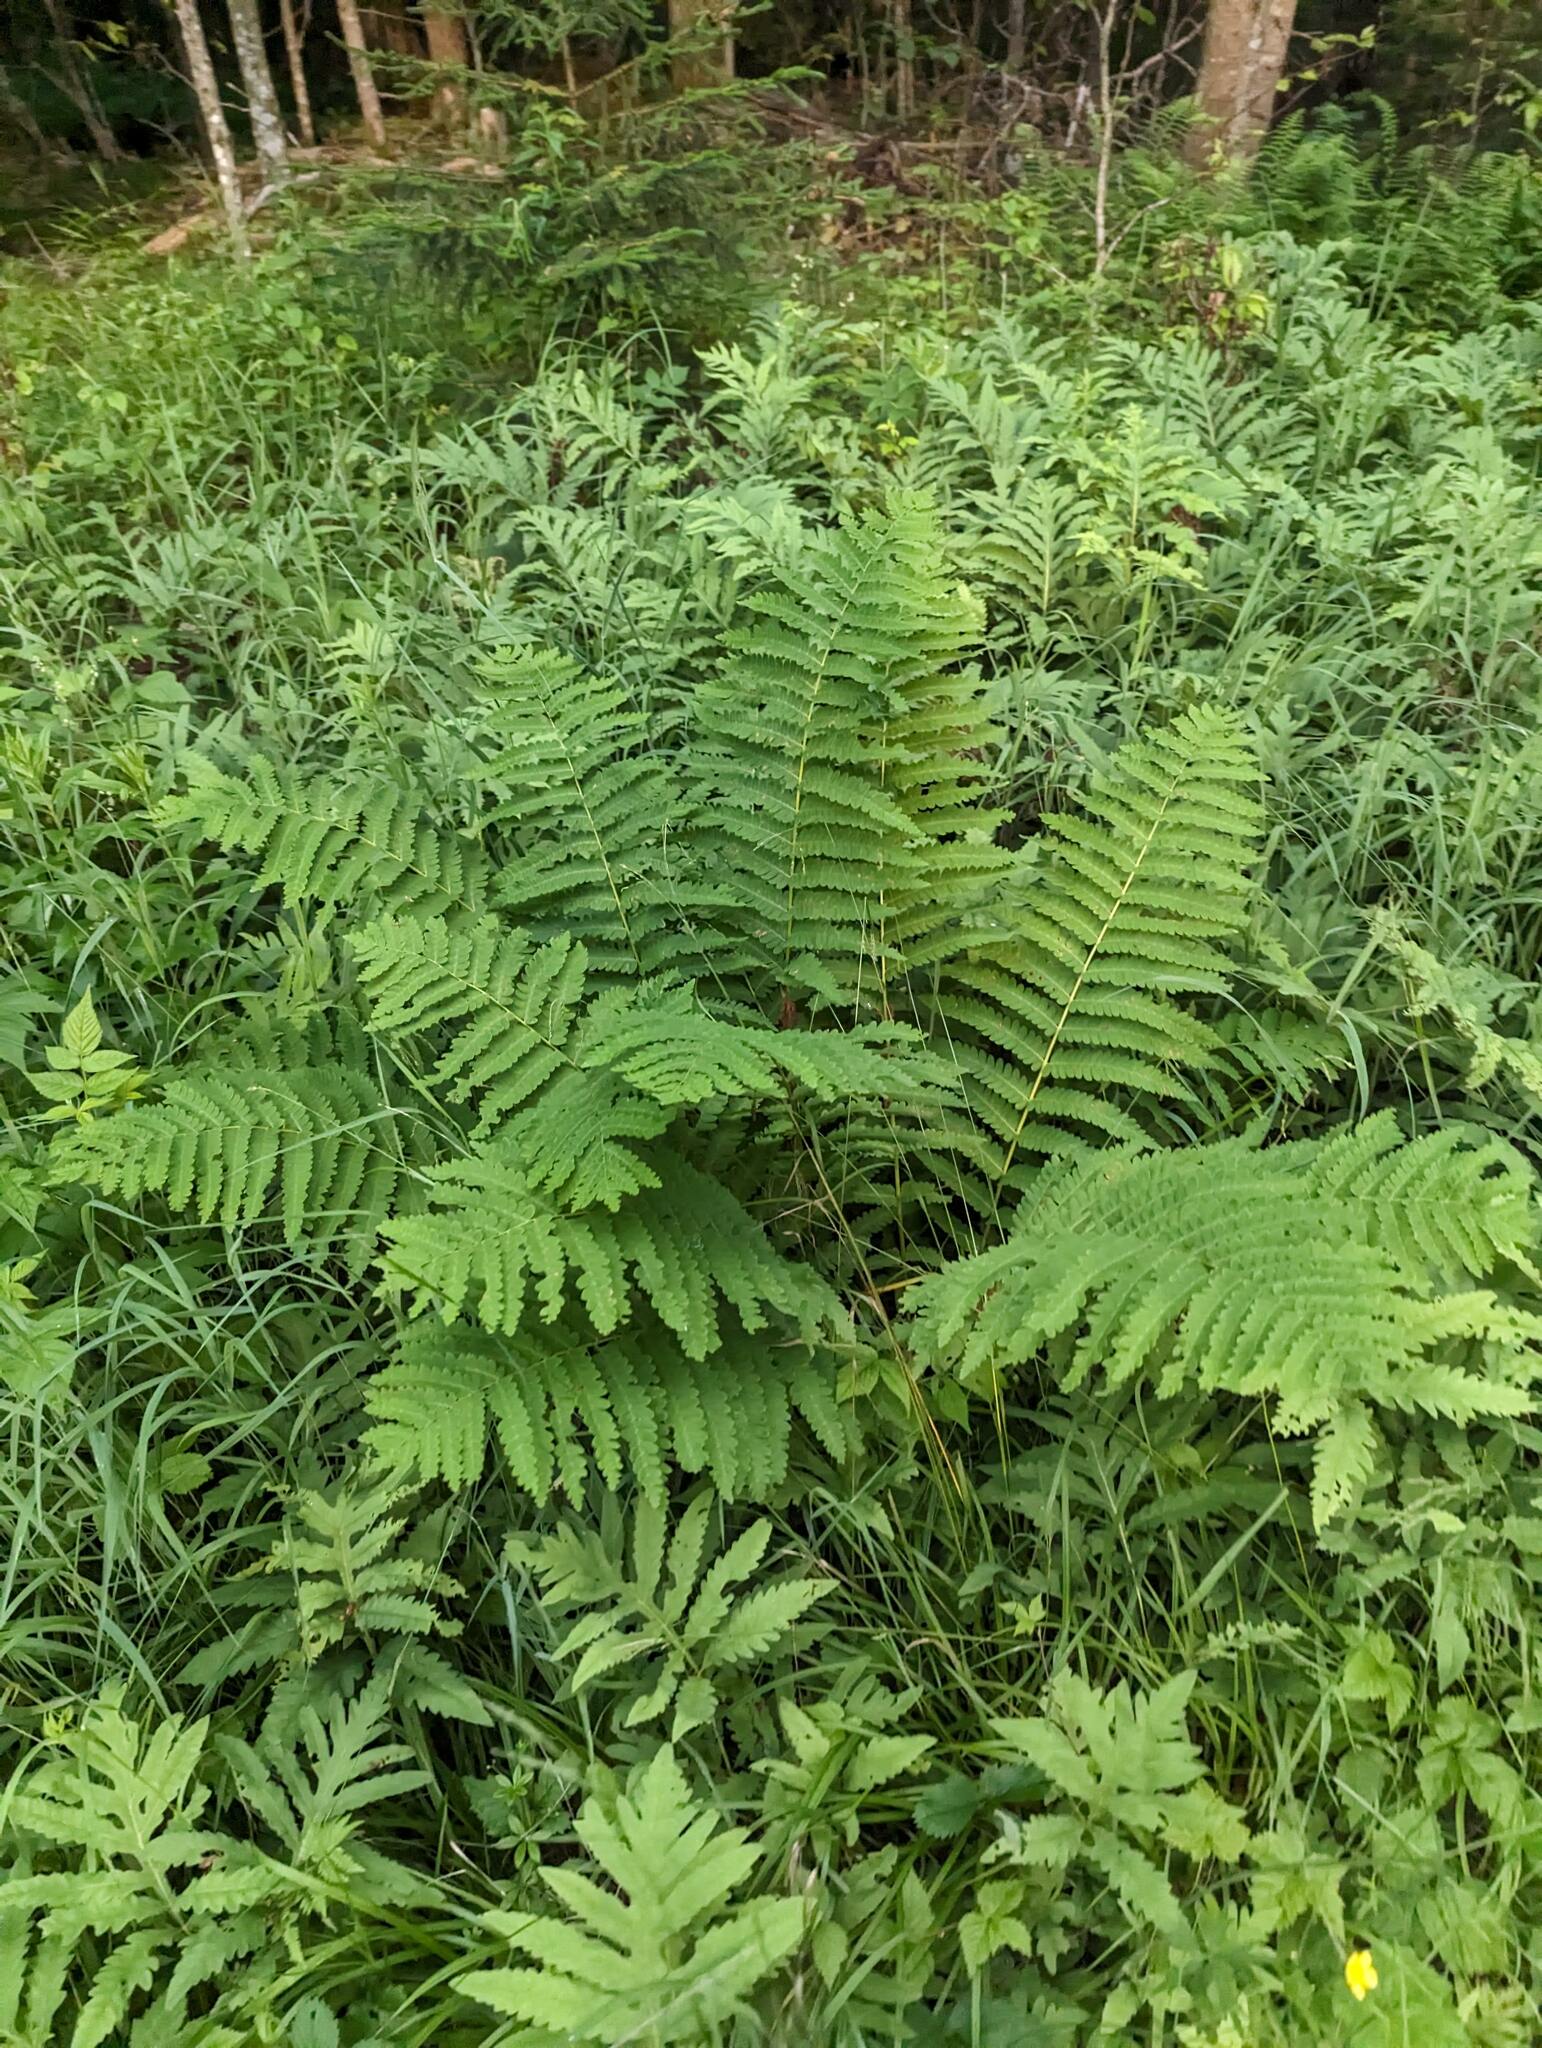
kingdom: Plantae
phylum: Tracheophyta
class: Polypodiopsida
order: Osmundales
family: Osmundaceae
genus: Claytosmunda
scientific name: Claytosmunda claytoniana
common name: Clayton's fern
